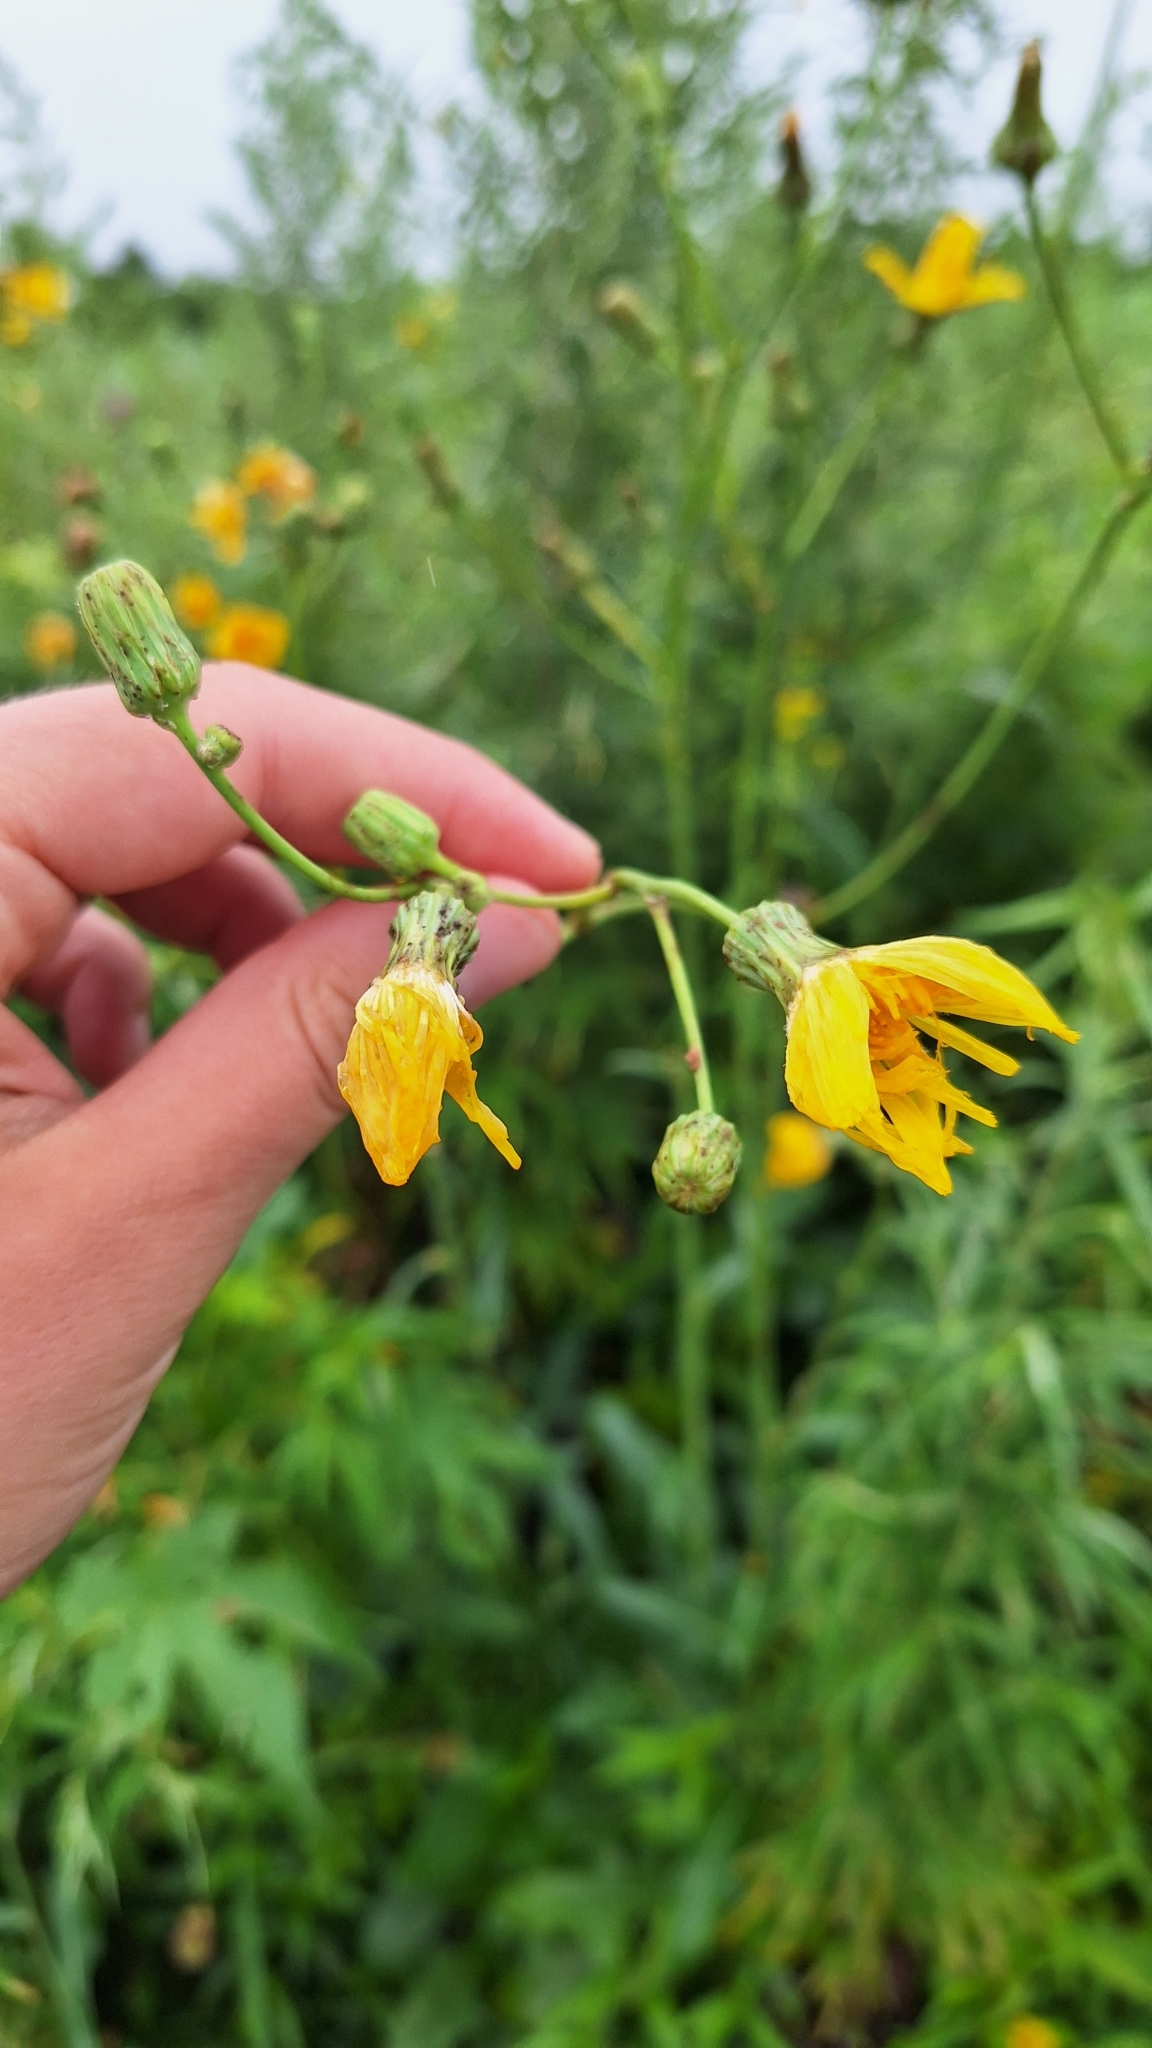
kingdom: Plantae
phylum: Tracheophyta
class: Magnoliopsida
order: Asterales
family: Asteraceae
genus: Sonchus
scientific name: Sonchus arvensis
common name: Perennial sow-thistle
